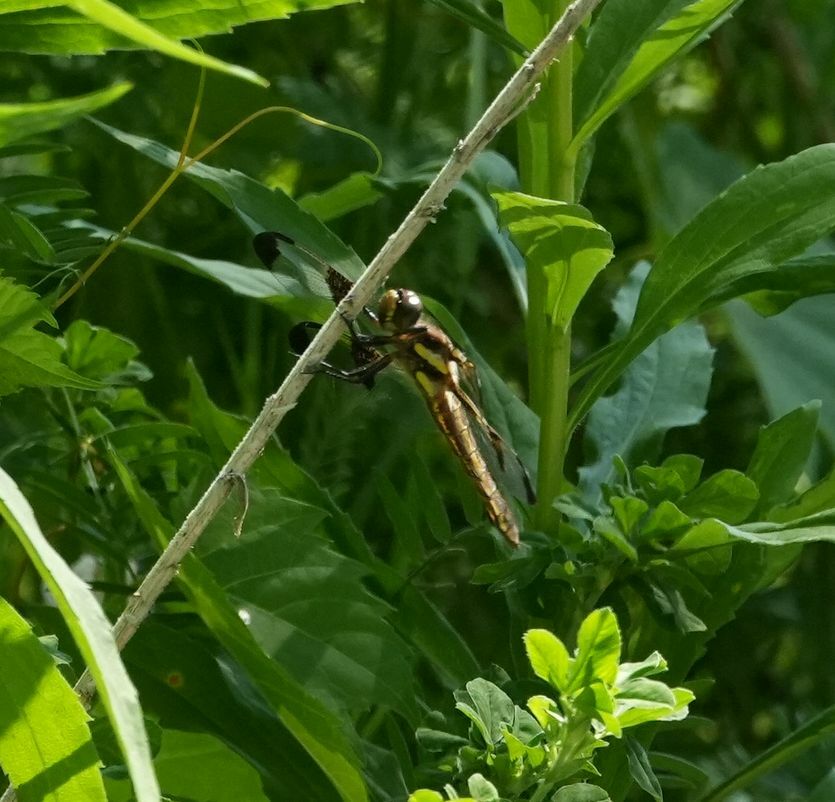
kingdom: Animalia
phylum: Arthropoda
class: Insecta
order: Odonata
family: Libellulidae
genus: Libellula
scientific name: Libellula pulchella
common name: Twelve-spotted skimmer
